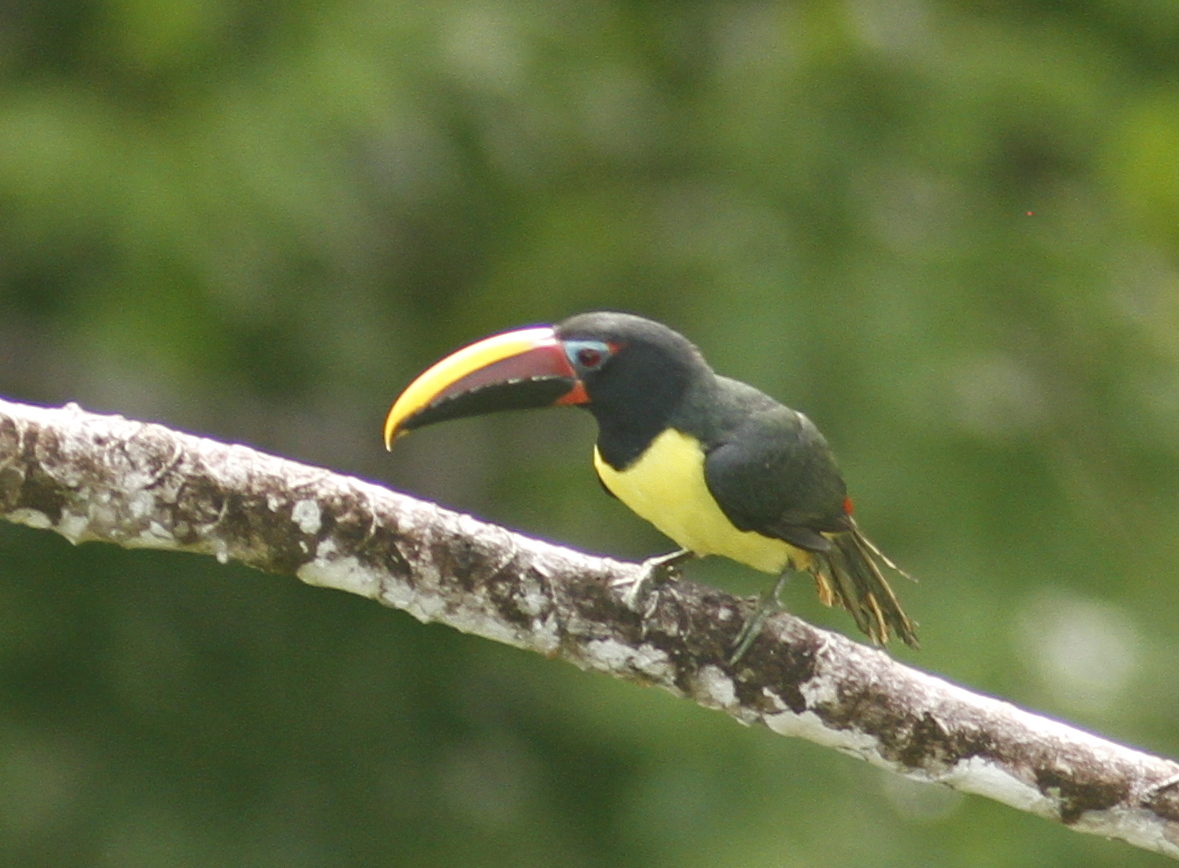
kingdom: Animalia
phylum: Chordata
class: Aves
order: Piciformes
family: Ramphastidae
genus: Pteroglossus
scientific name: Pteroglossus viridis
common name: Green aracari
